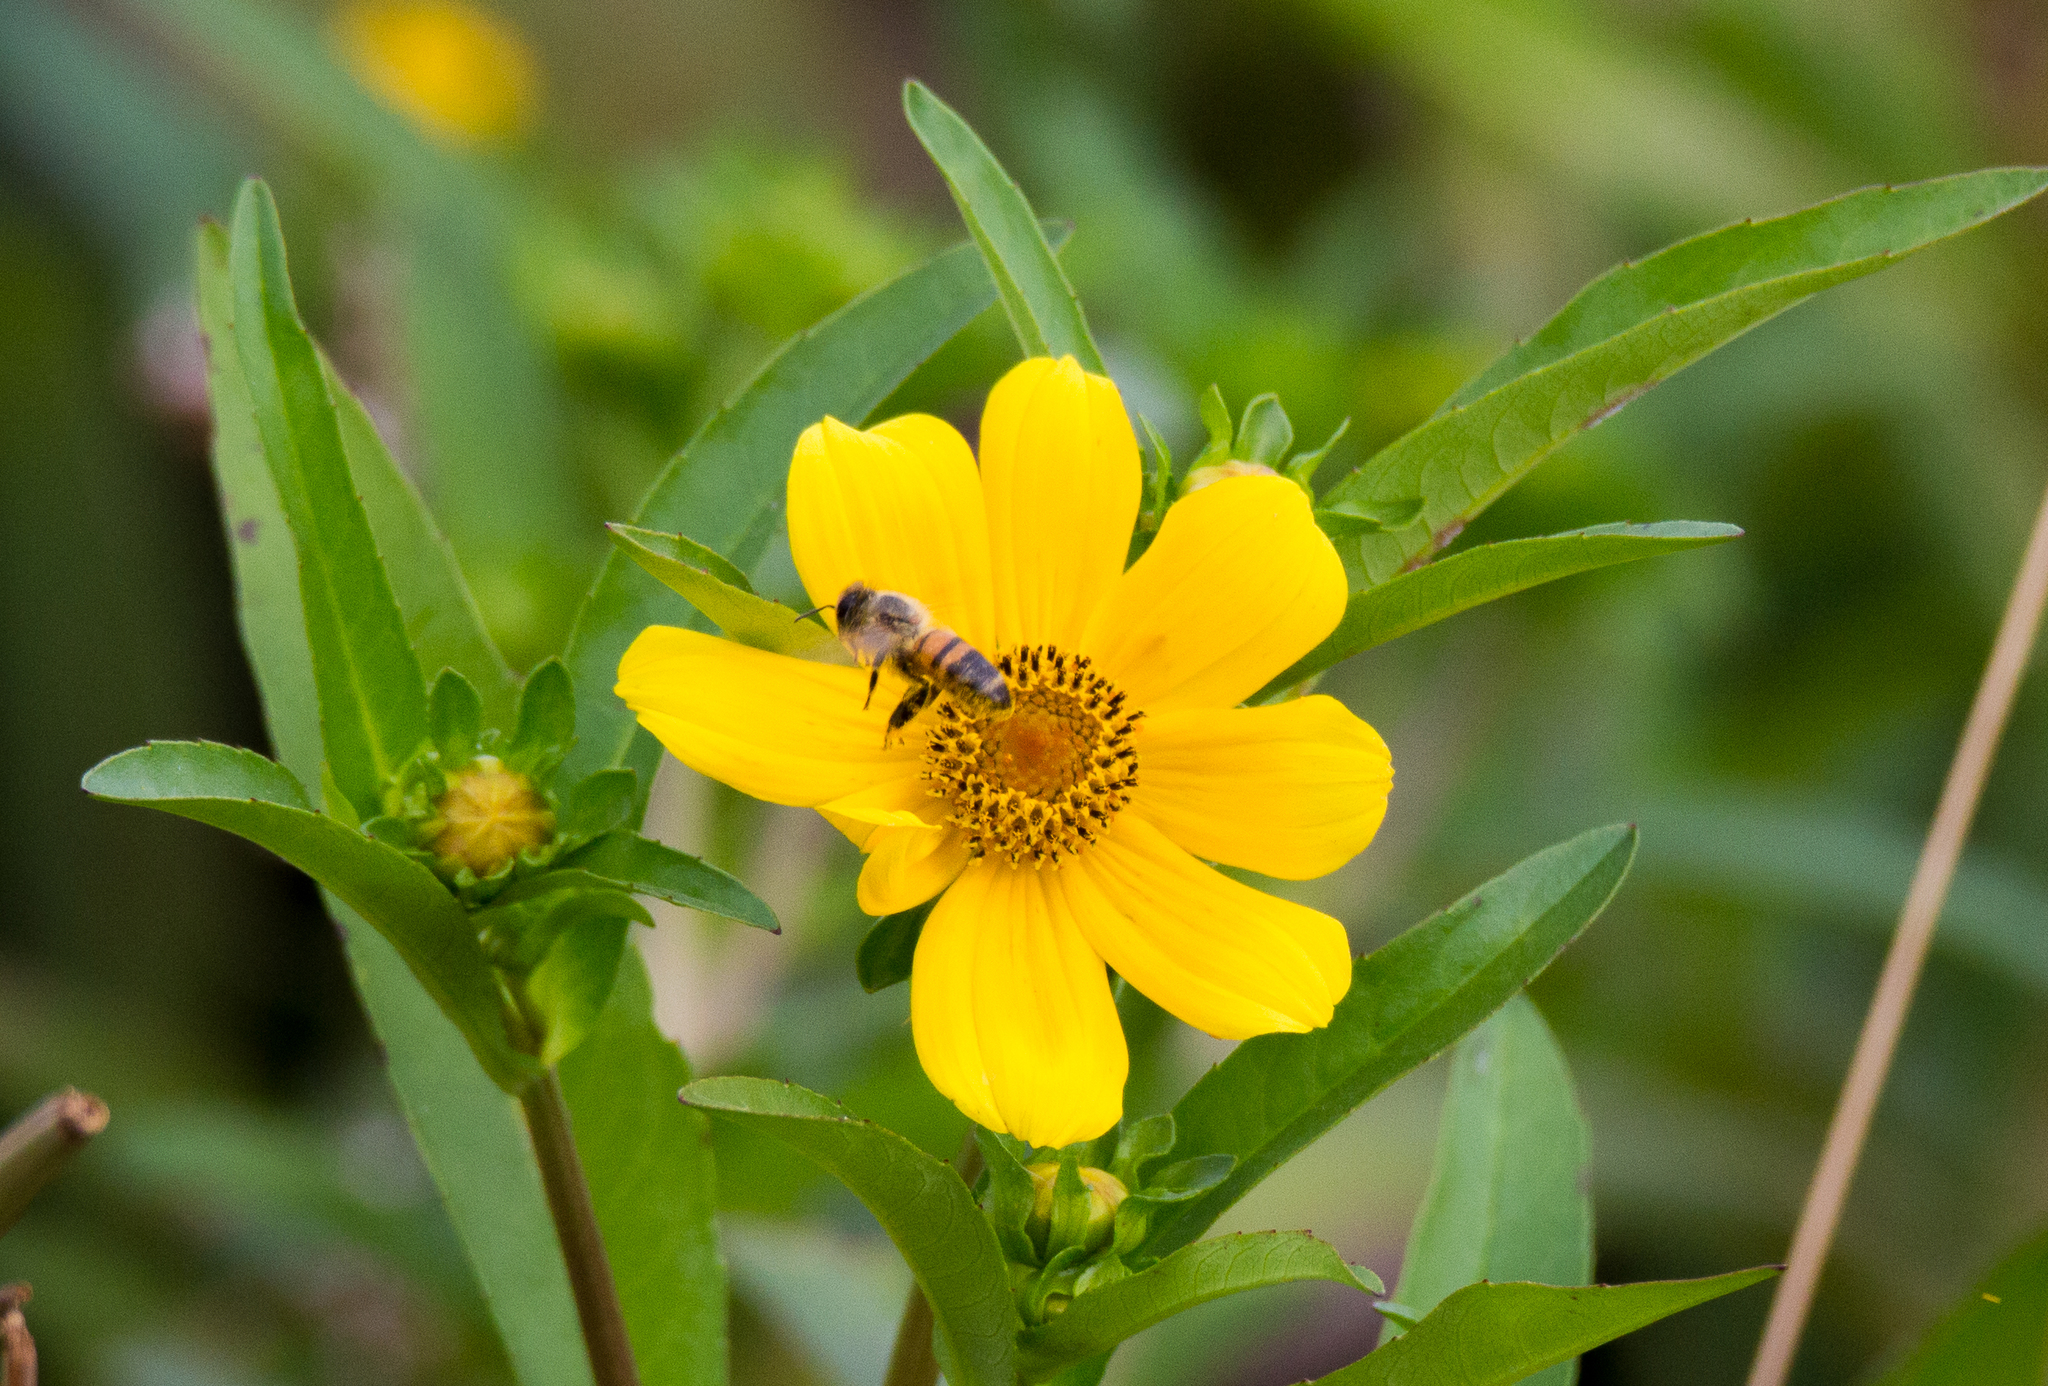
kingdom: Animalia
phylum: Arthropoda
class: Insecta
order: Hymenoptera
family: Apidae
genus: Apis
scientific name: Apis mellifera
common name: Honey bee
